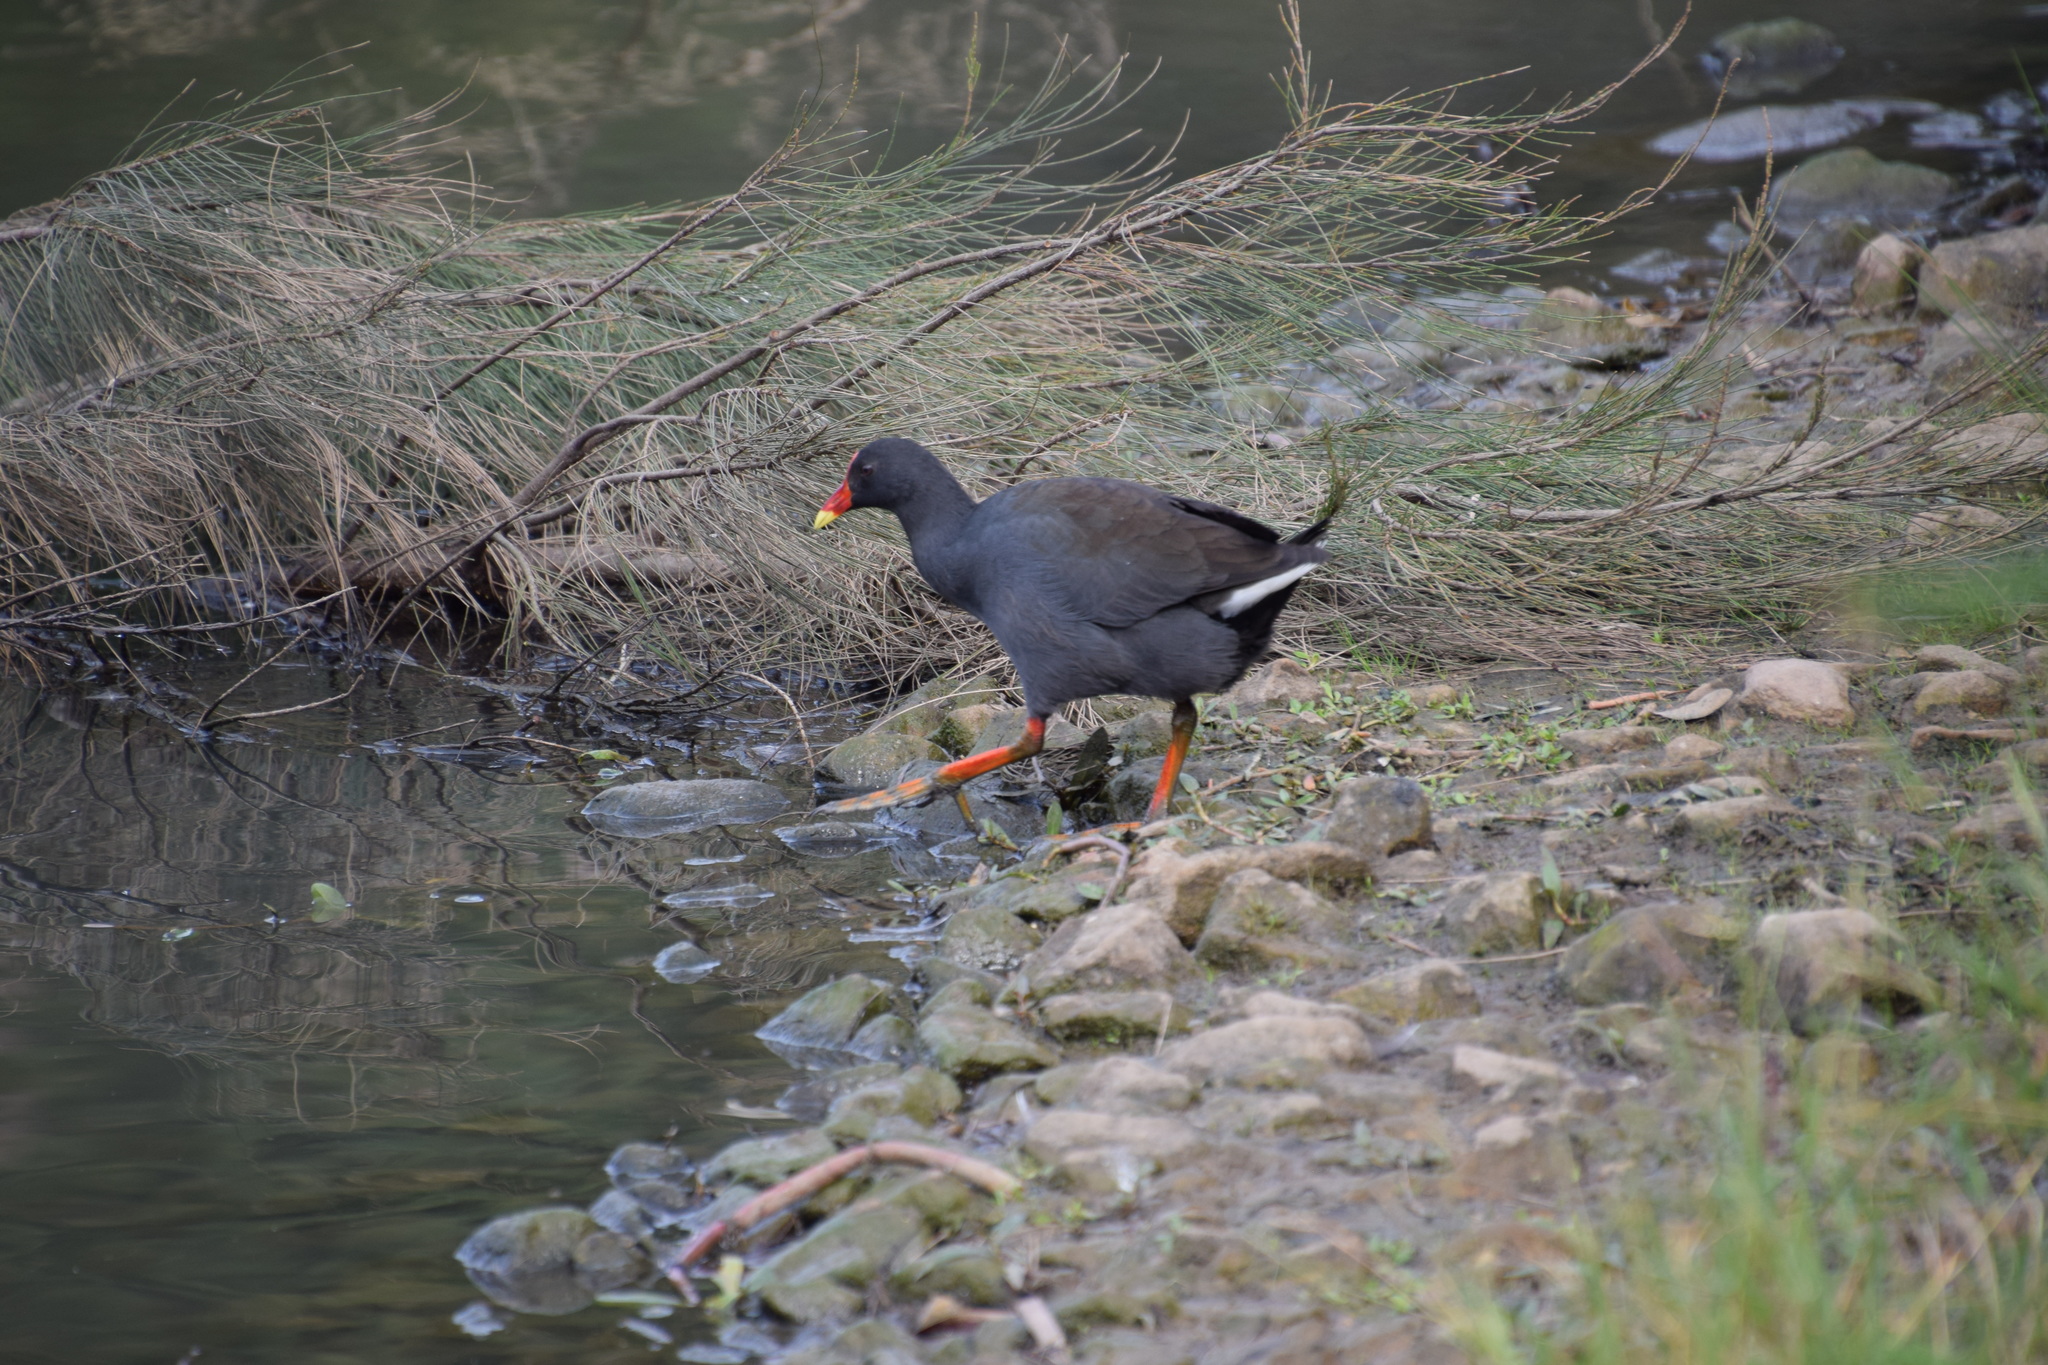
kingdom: Animalia
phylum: Chordata
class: Aves
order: Gruiformes
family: Rallidae
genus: Gallinula
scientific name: Gallinula tenebrosa
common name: Dusky moorhen
